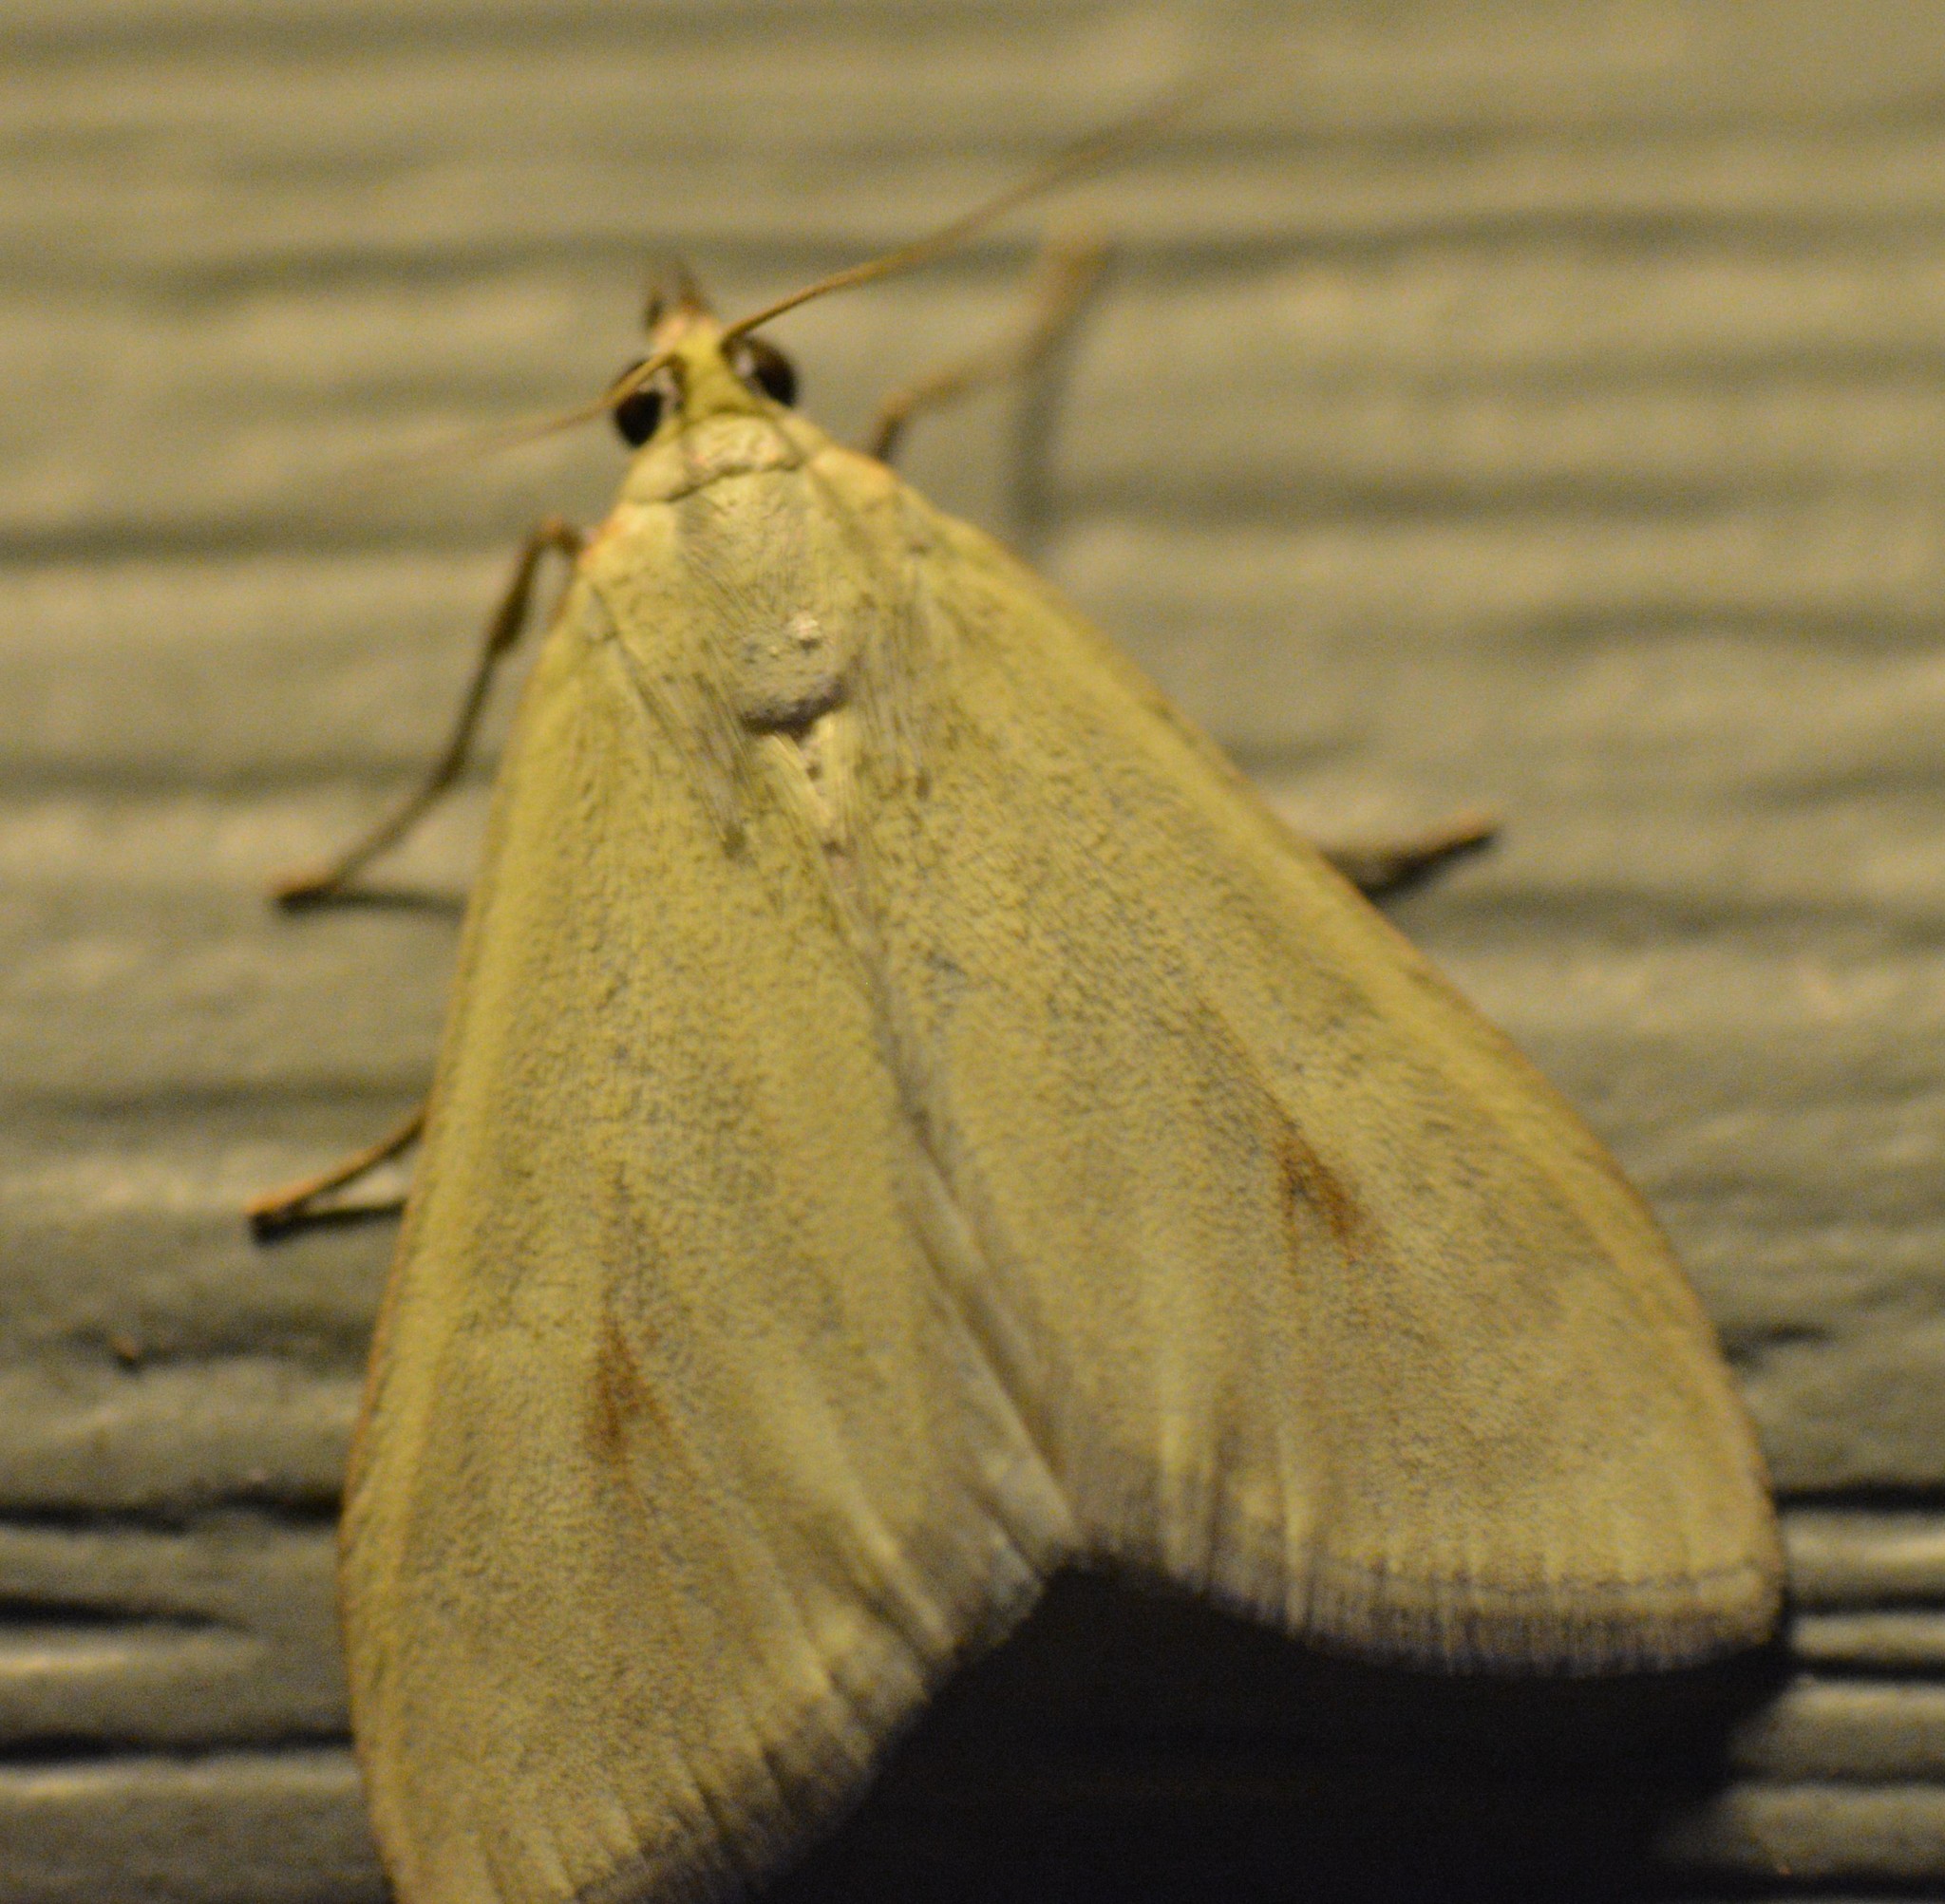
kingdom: Animalia
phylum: Arthropoda
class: Insecta
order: Lepidoptera
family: Crambidae
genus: Sitochroa
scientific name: Sitochroa palealis
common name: Greenish-yellow sitochroa moth
